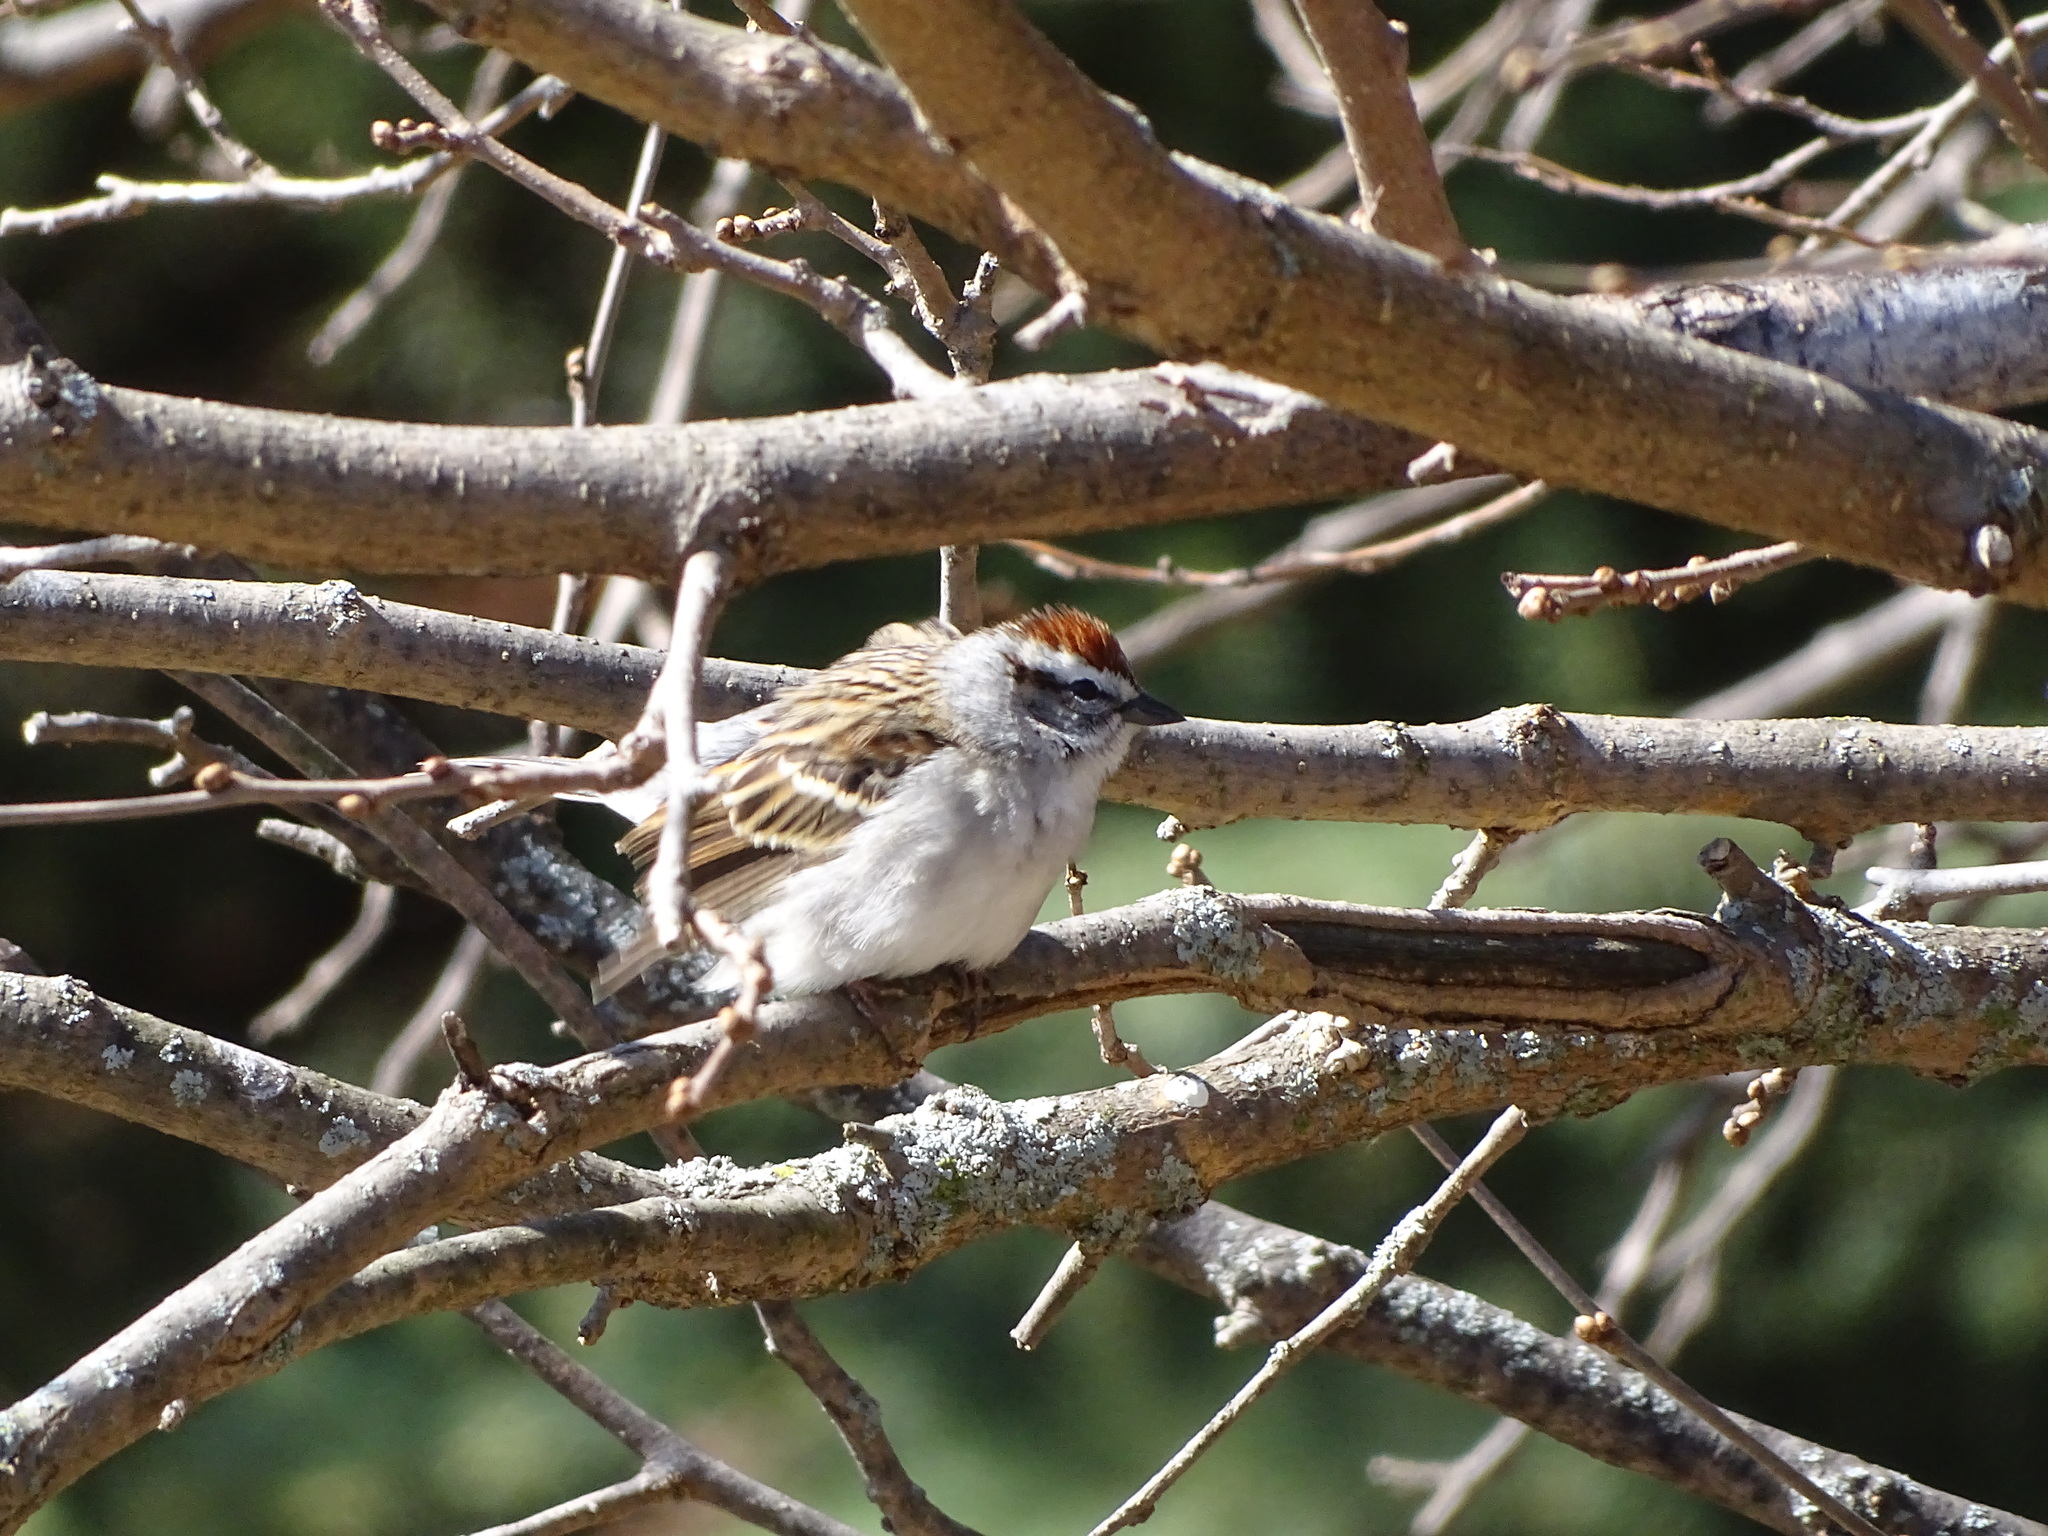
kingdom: Animalia
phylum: Chordata
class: Aves
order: Passeriformes
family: Passerellidae
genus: Spizella
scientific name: Spizella passerina
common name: Chipping sparrow
